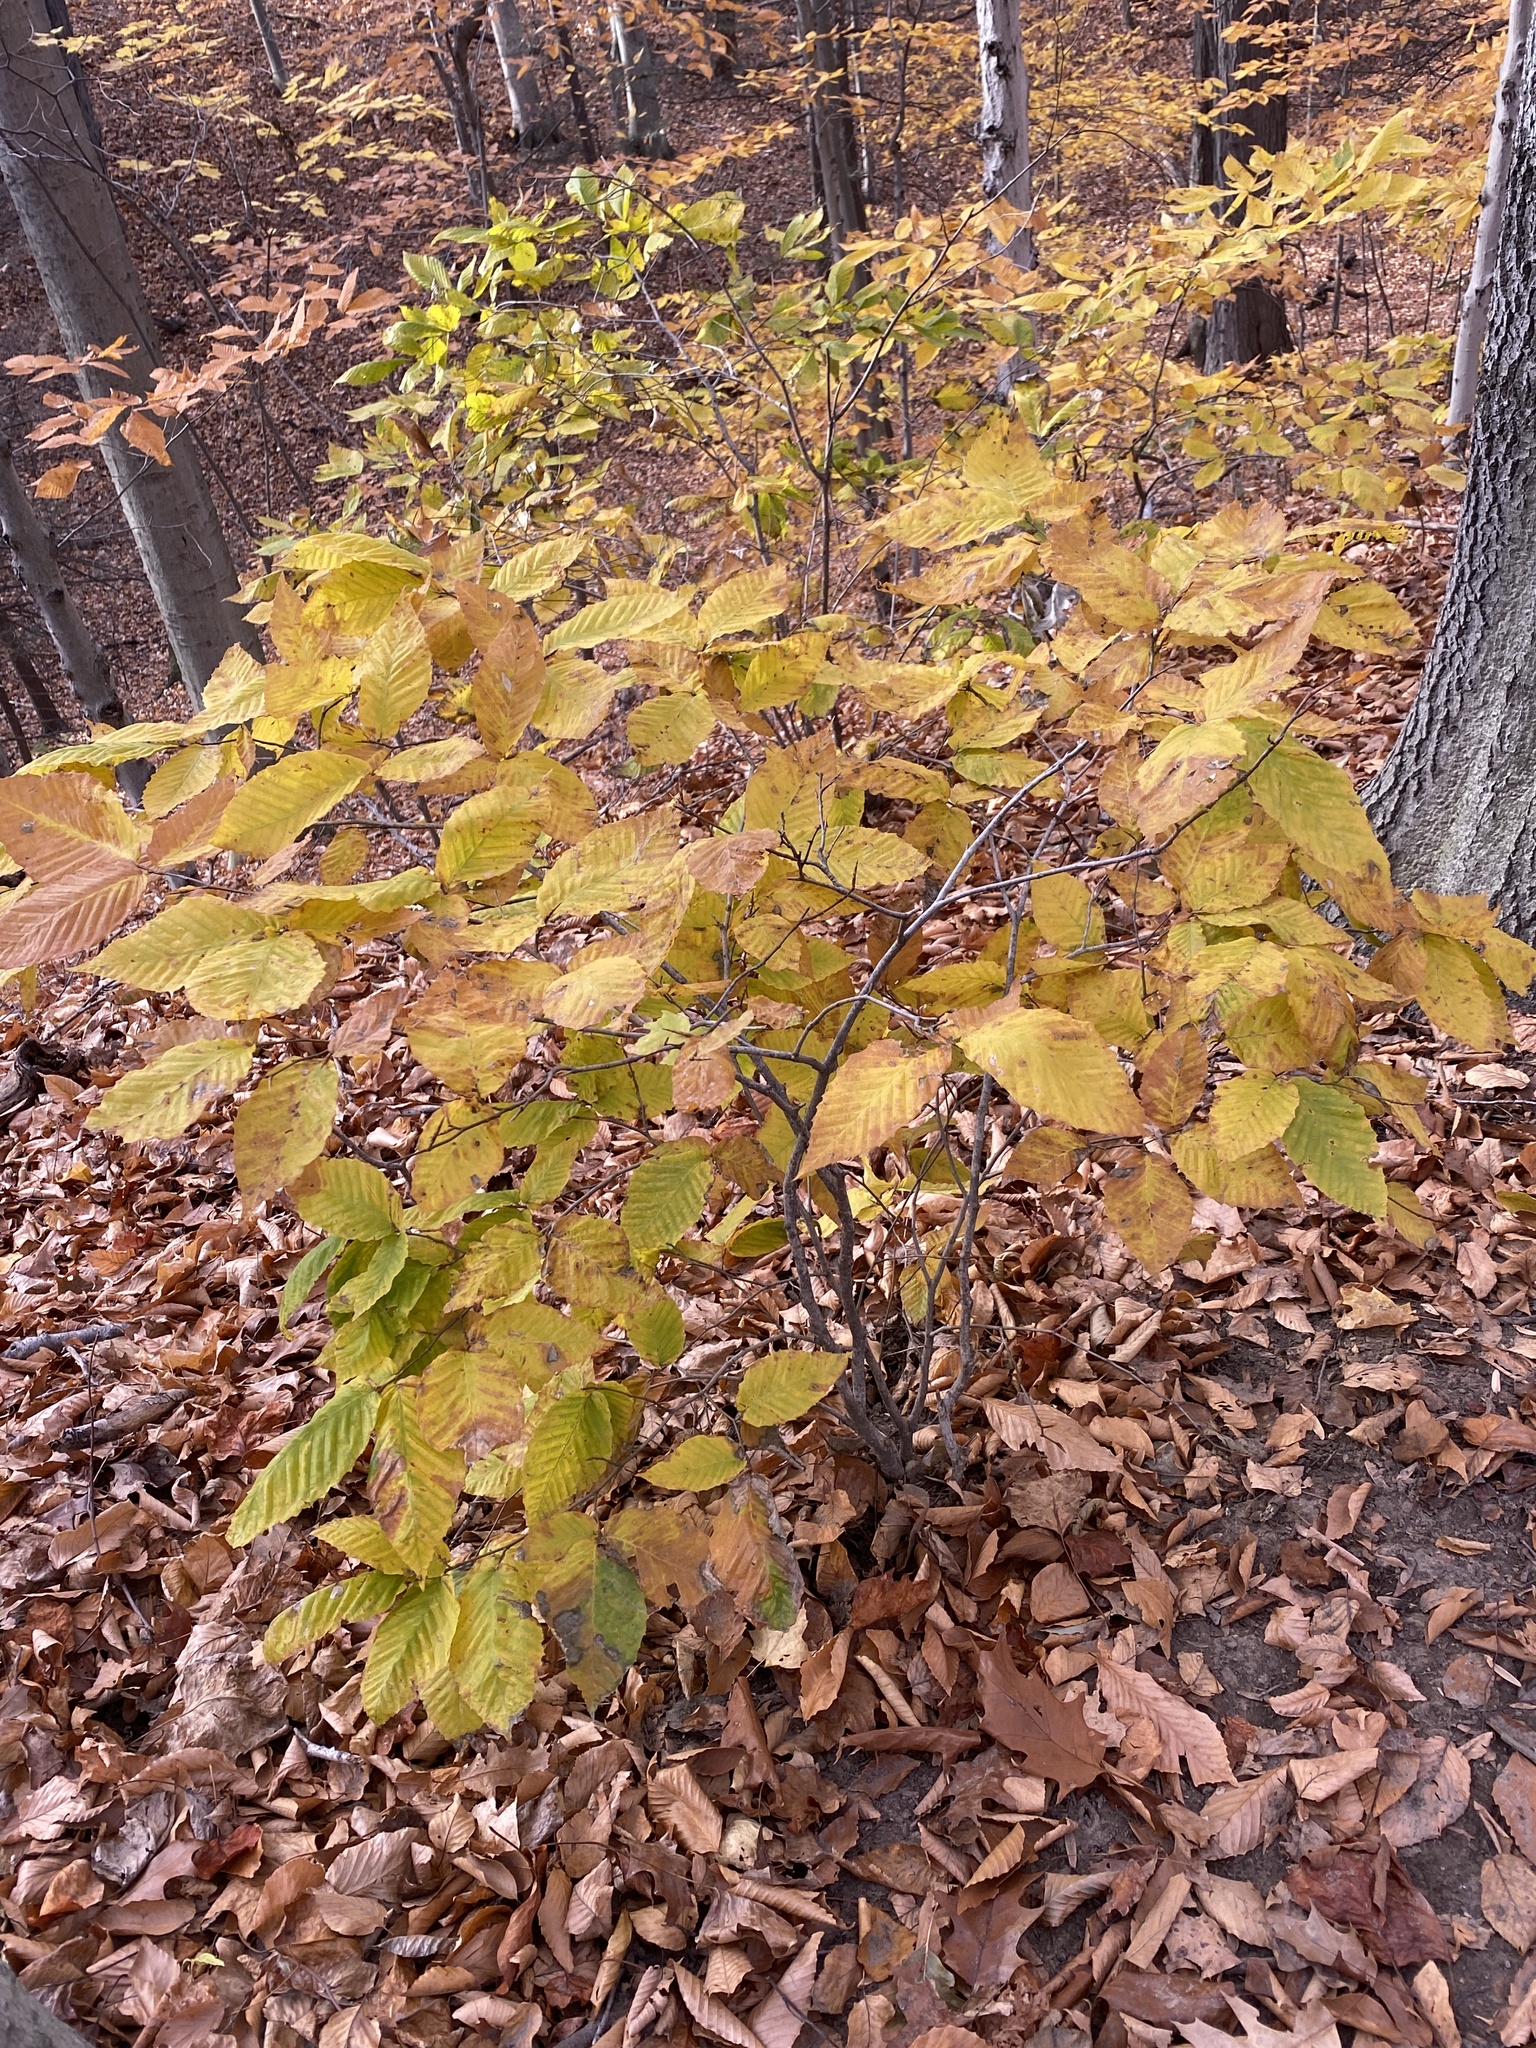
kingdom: Plantae
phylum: Tracheophyta
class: Magnoliopsida
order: Fagales
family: Fagaceae
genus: Fagus
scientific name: Fagus grandifolia
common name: American beech
